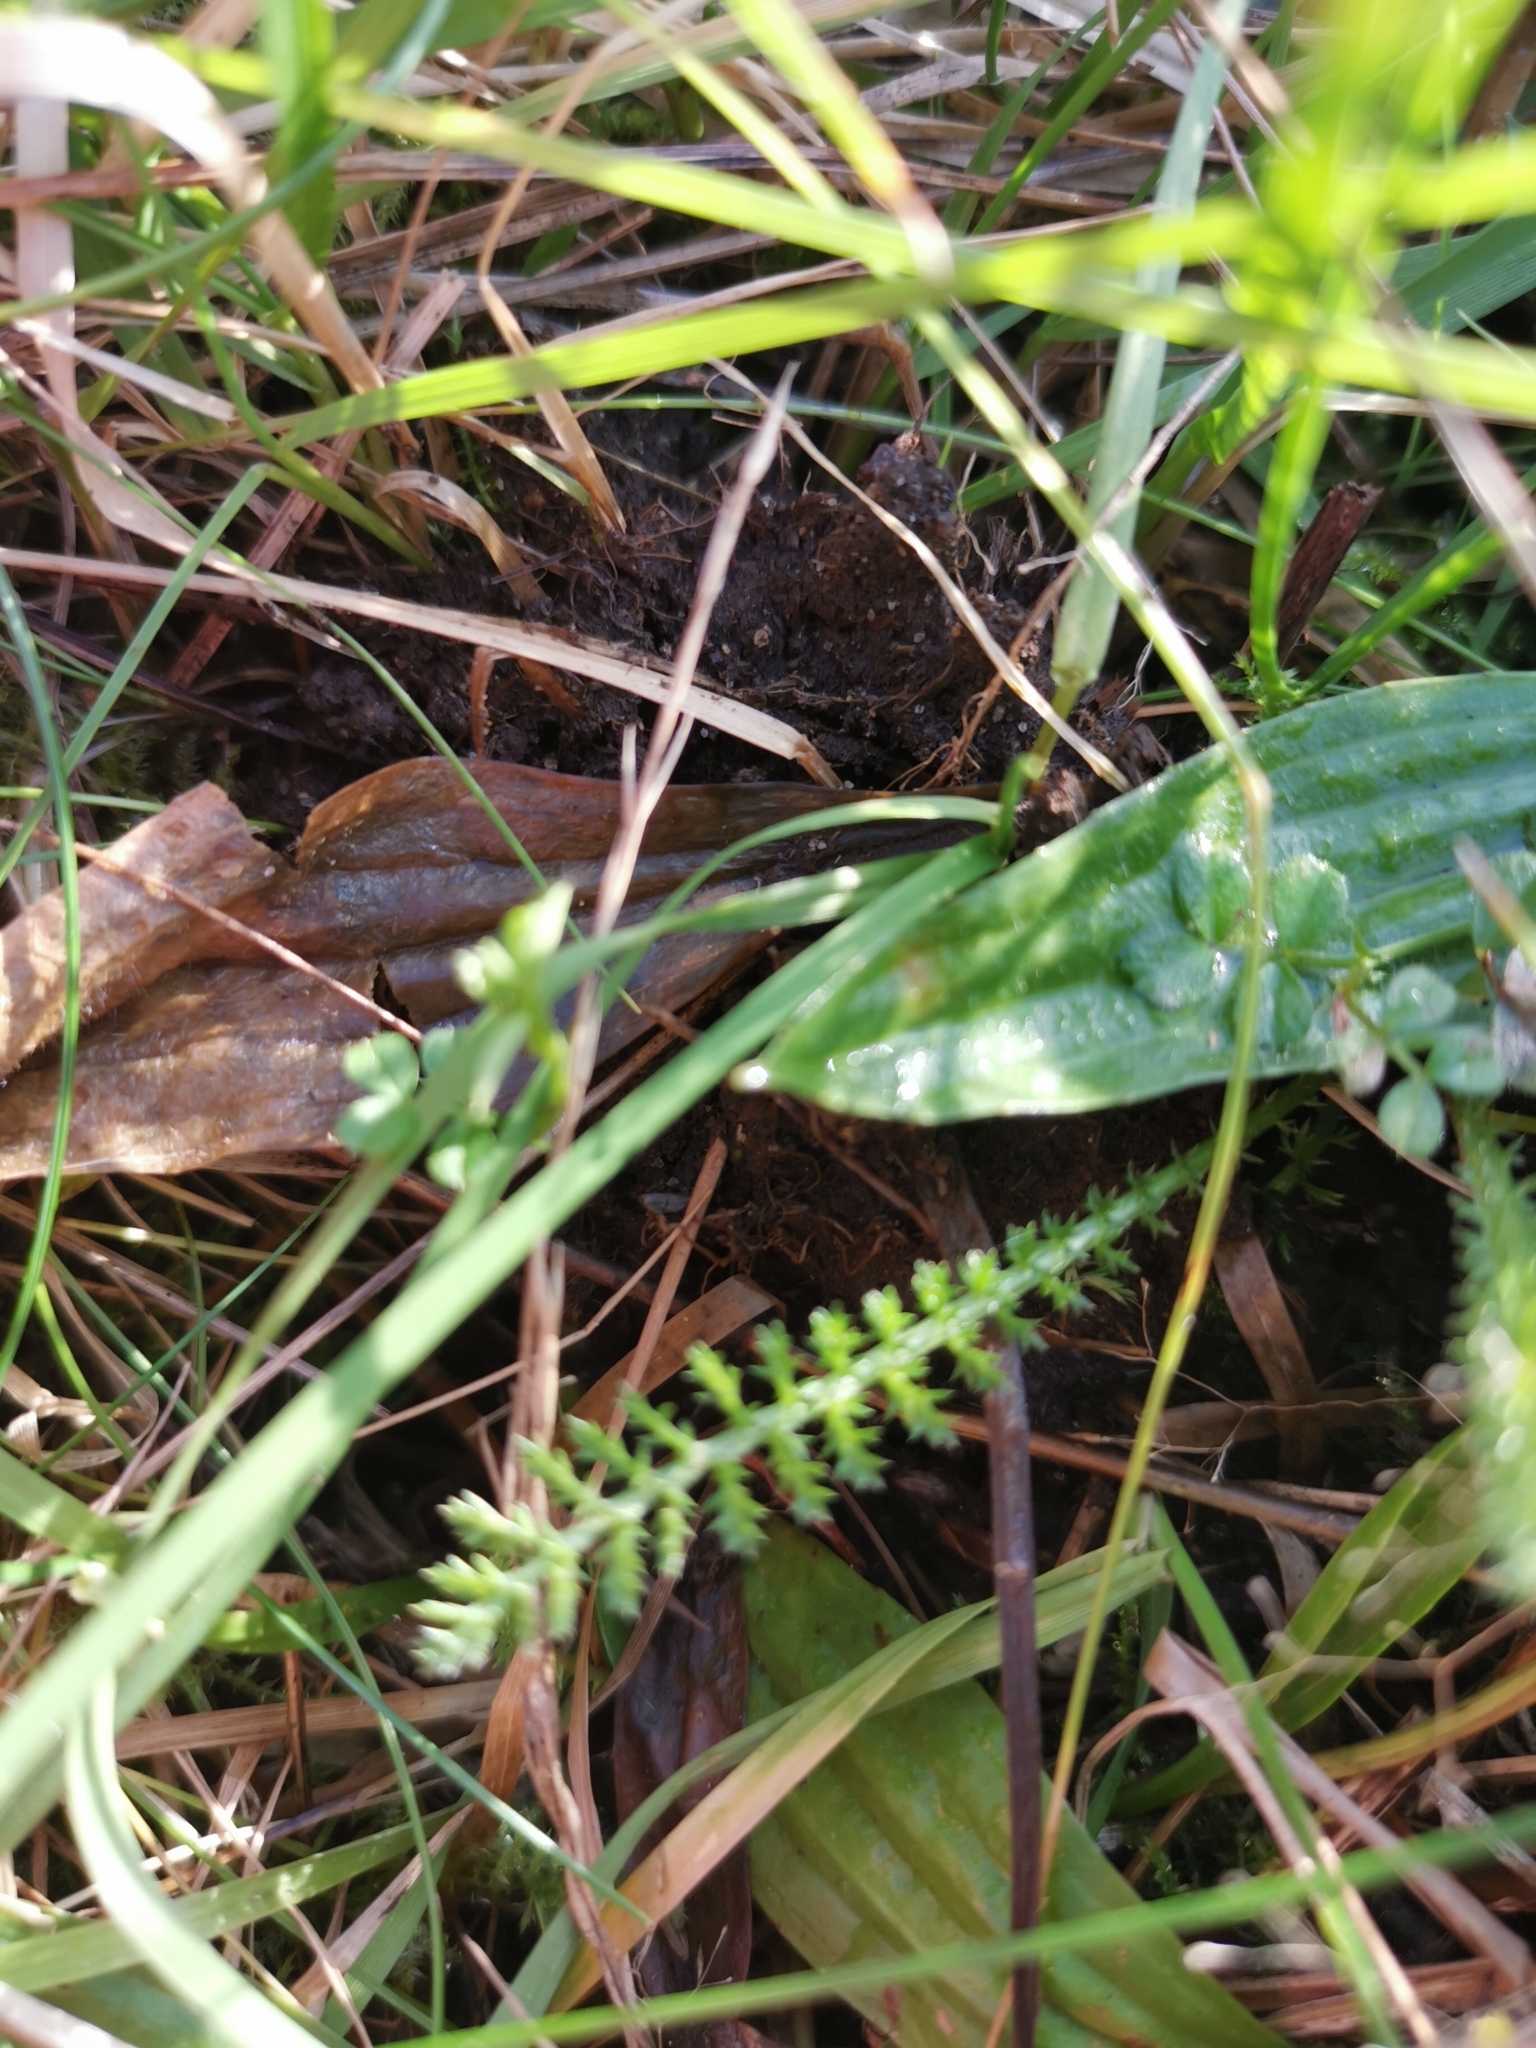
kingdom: Plantae
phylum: Tracheophyta
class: Magnoliopsida
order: Asterales
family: Asteraceae
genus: Achillea
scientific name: Achillea millefolium
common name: Yarrow
